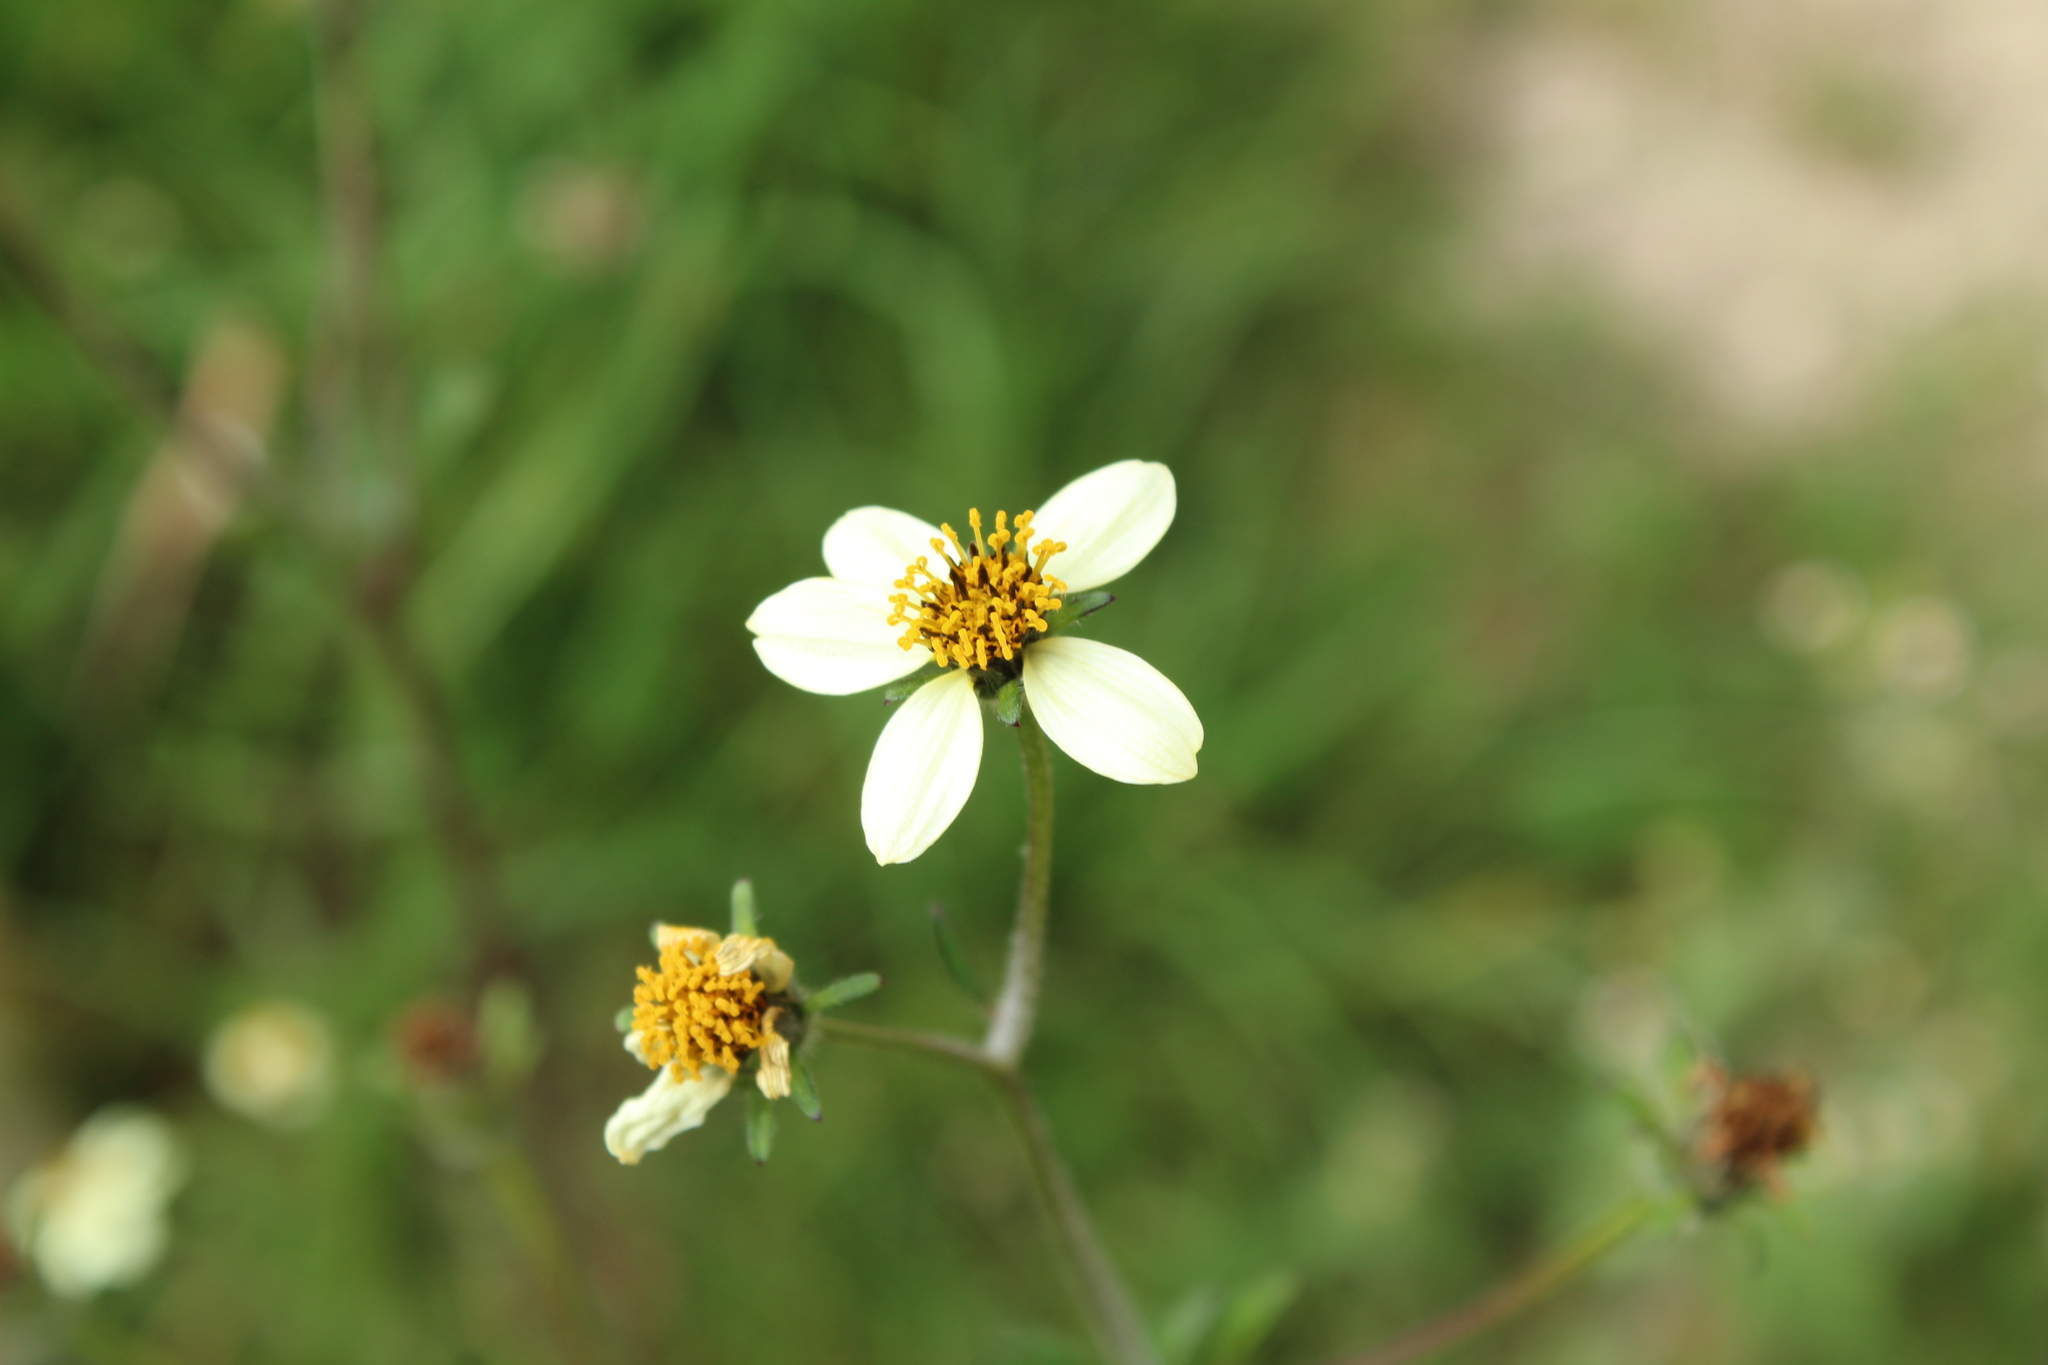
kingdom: Plantae
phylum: Tracheophyta
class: Magnoliopsida
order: Asterales
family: Asteraceae
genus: Bidens
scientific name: Bidens alba
